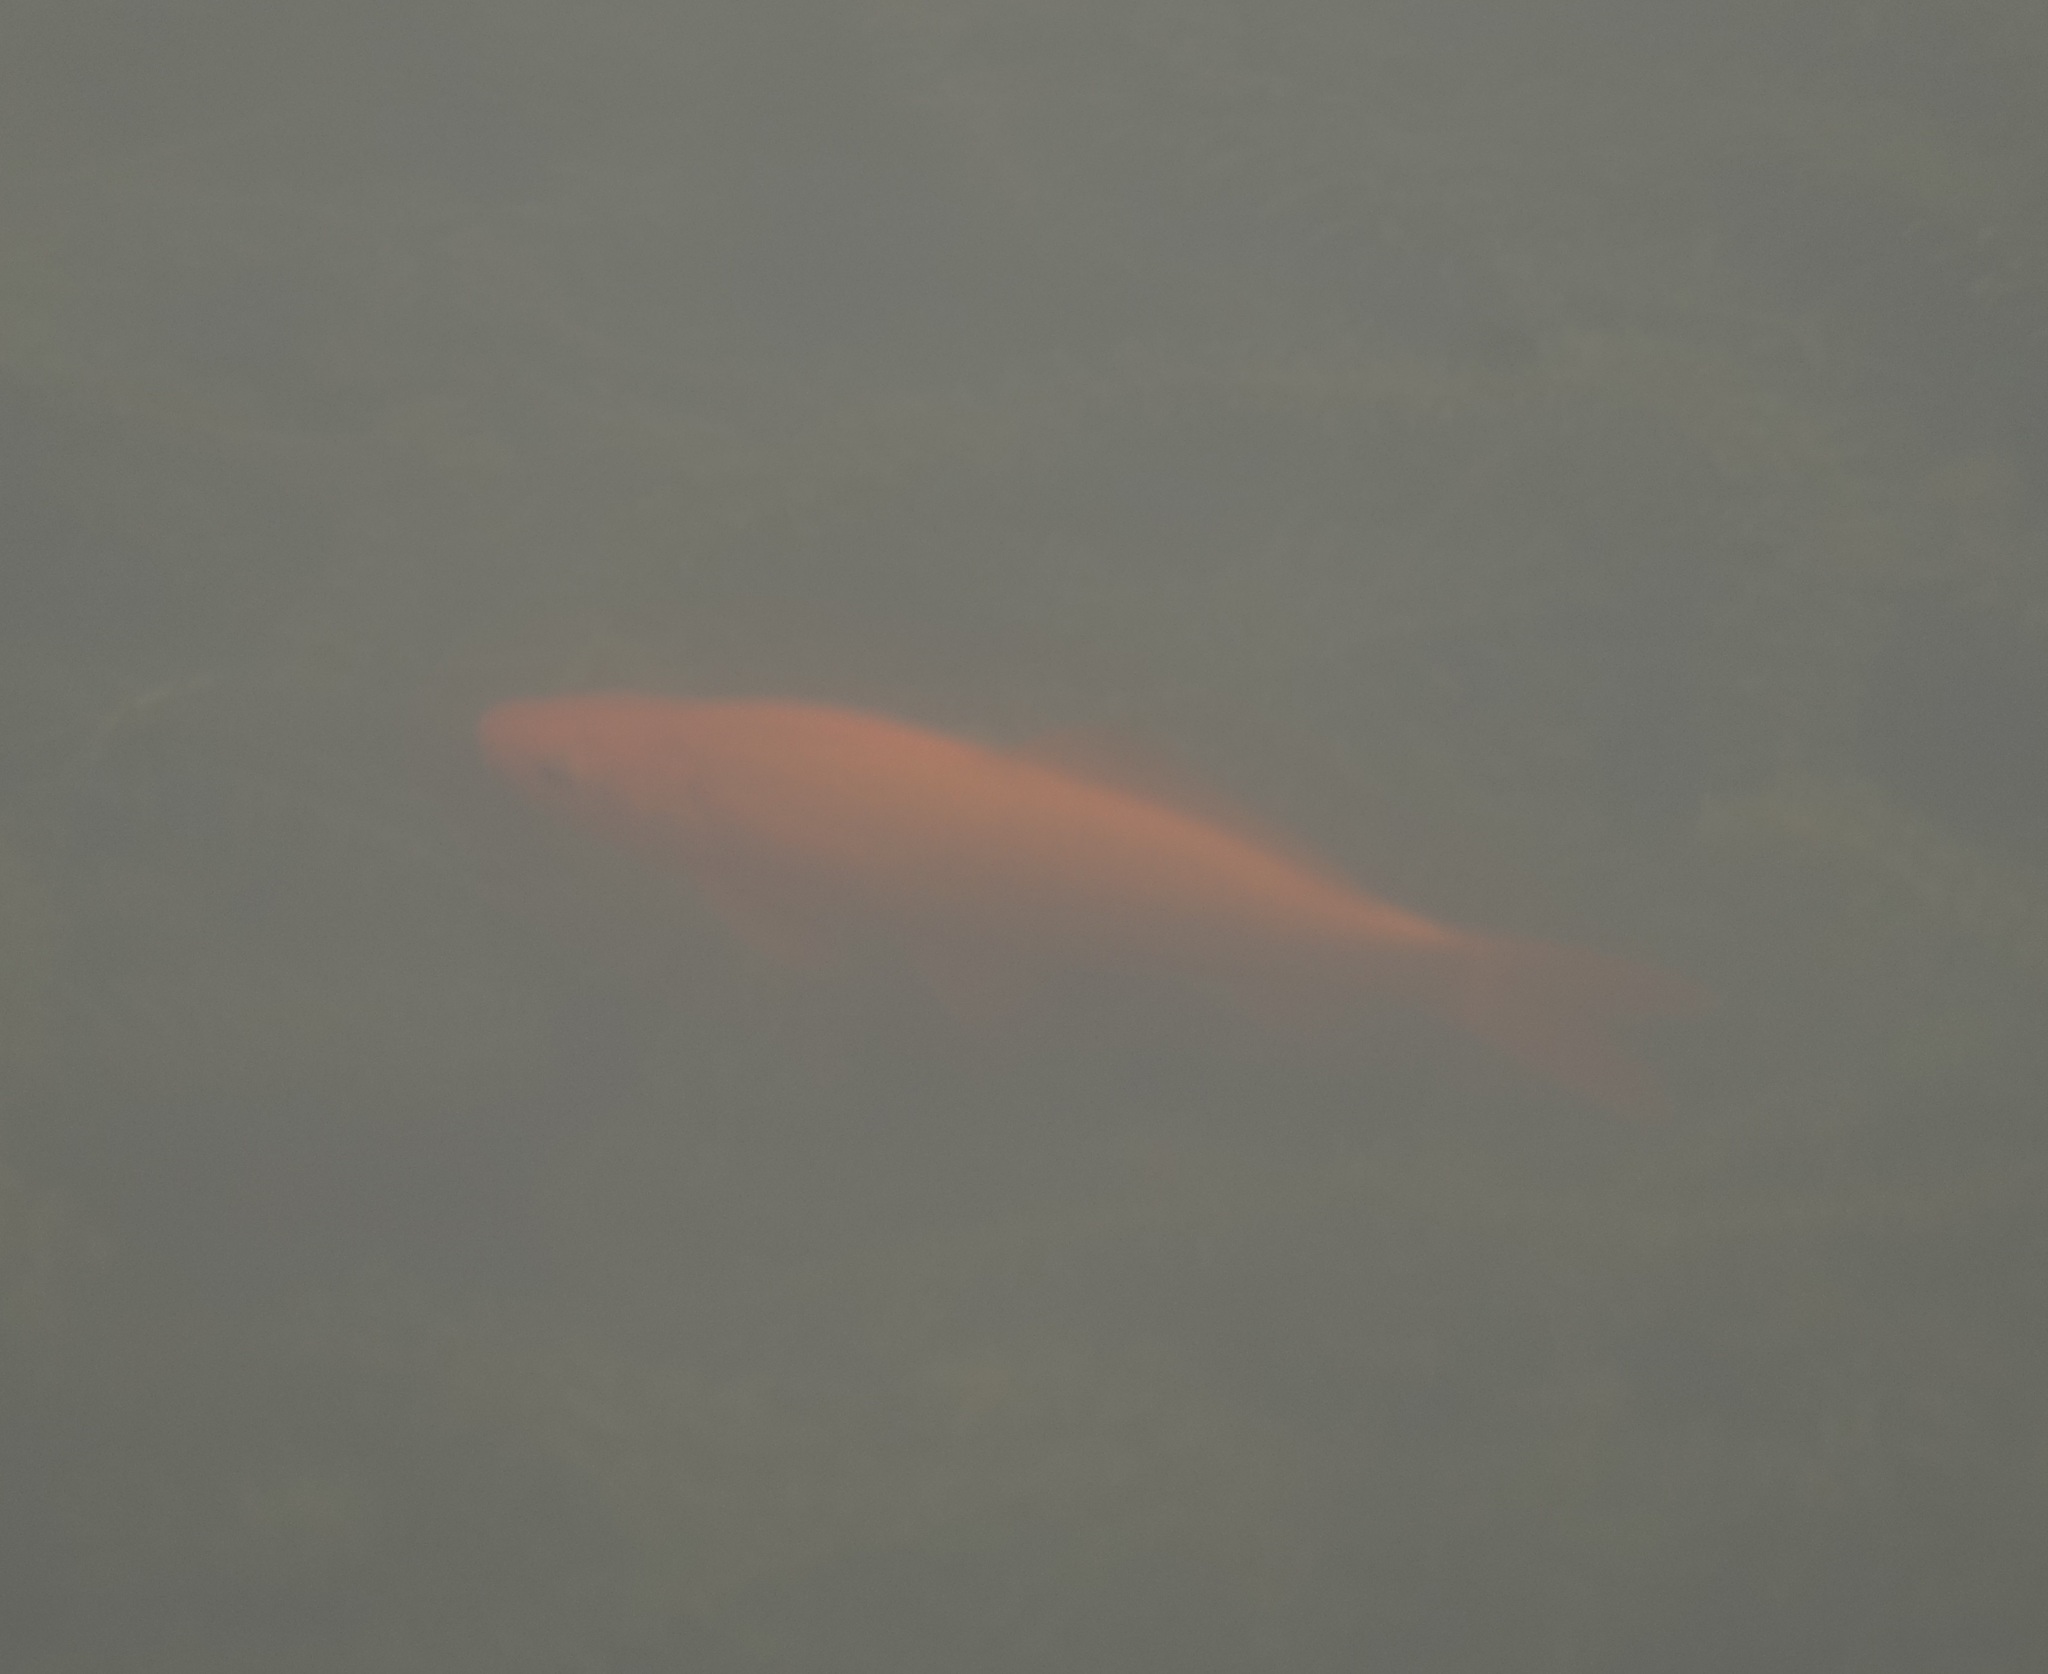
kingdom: Animalia
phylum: Chordata
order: Cypriniformes
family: Cyprinidae
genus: Carassius
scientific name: Carassius auratus
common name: Goldfish
